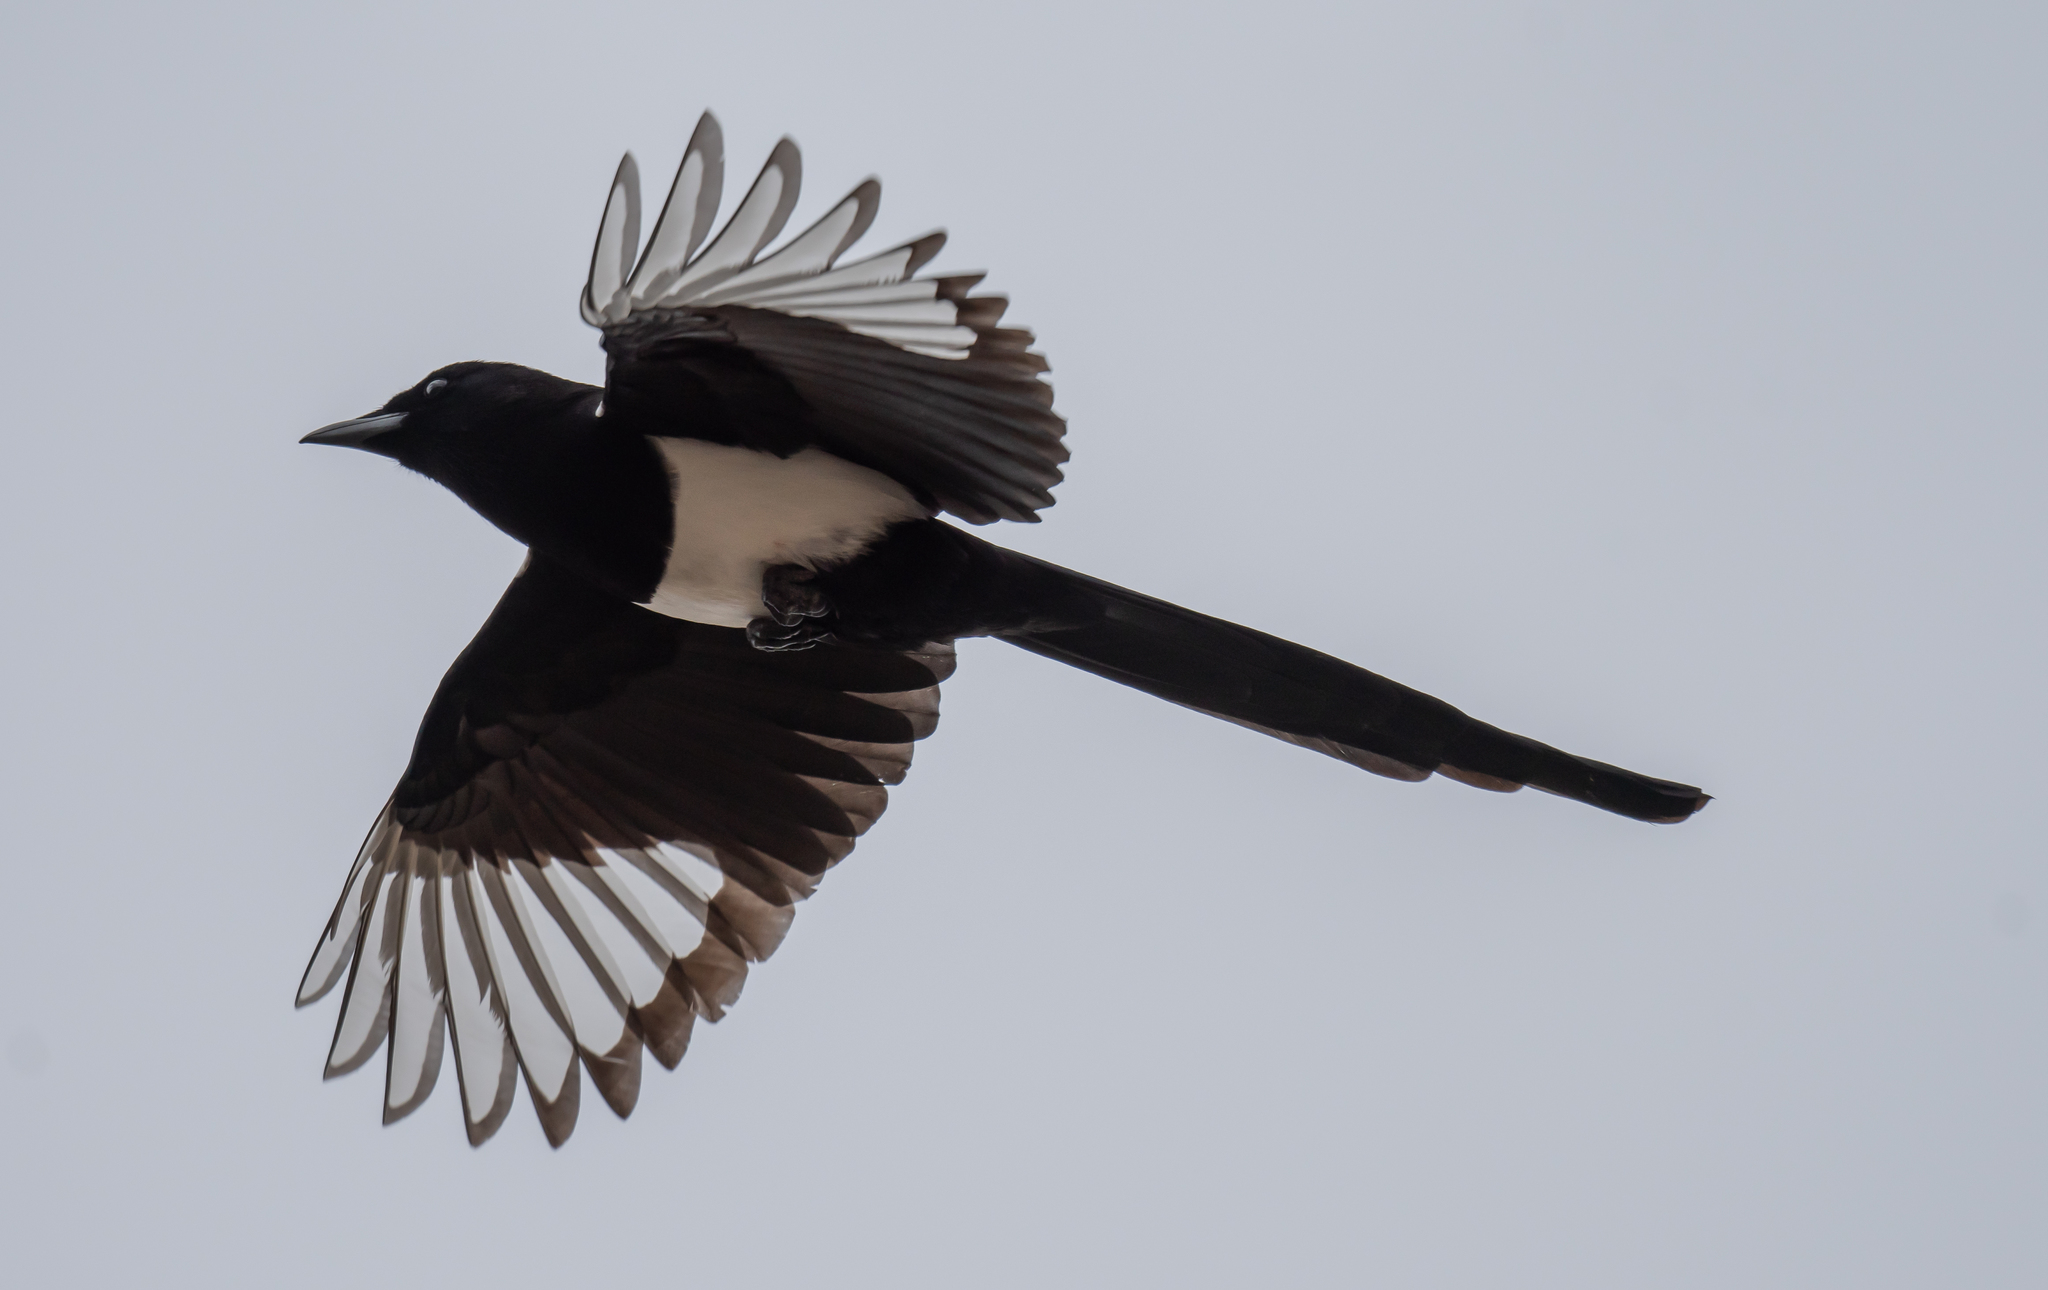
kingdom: Animalia
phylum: Chordata
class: Aves
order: Passeriformes
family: Corvidae
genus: Pica
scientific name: Pica hudsonia
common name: Black-billed magpie
